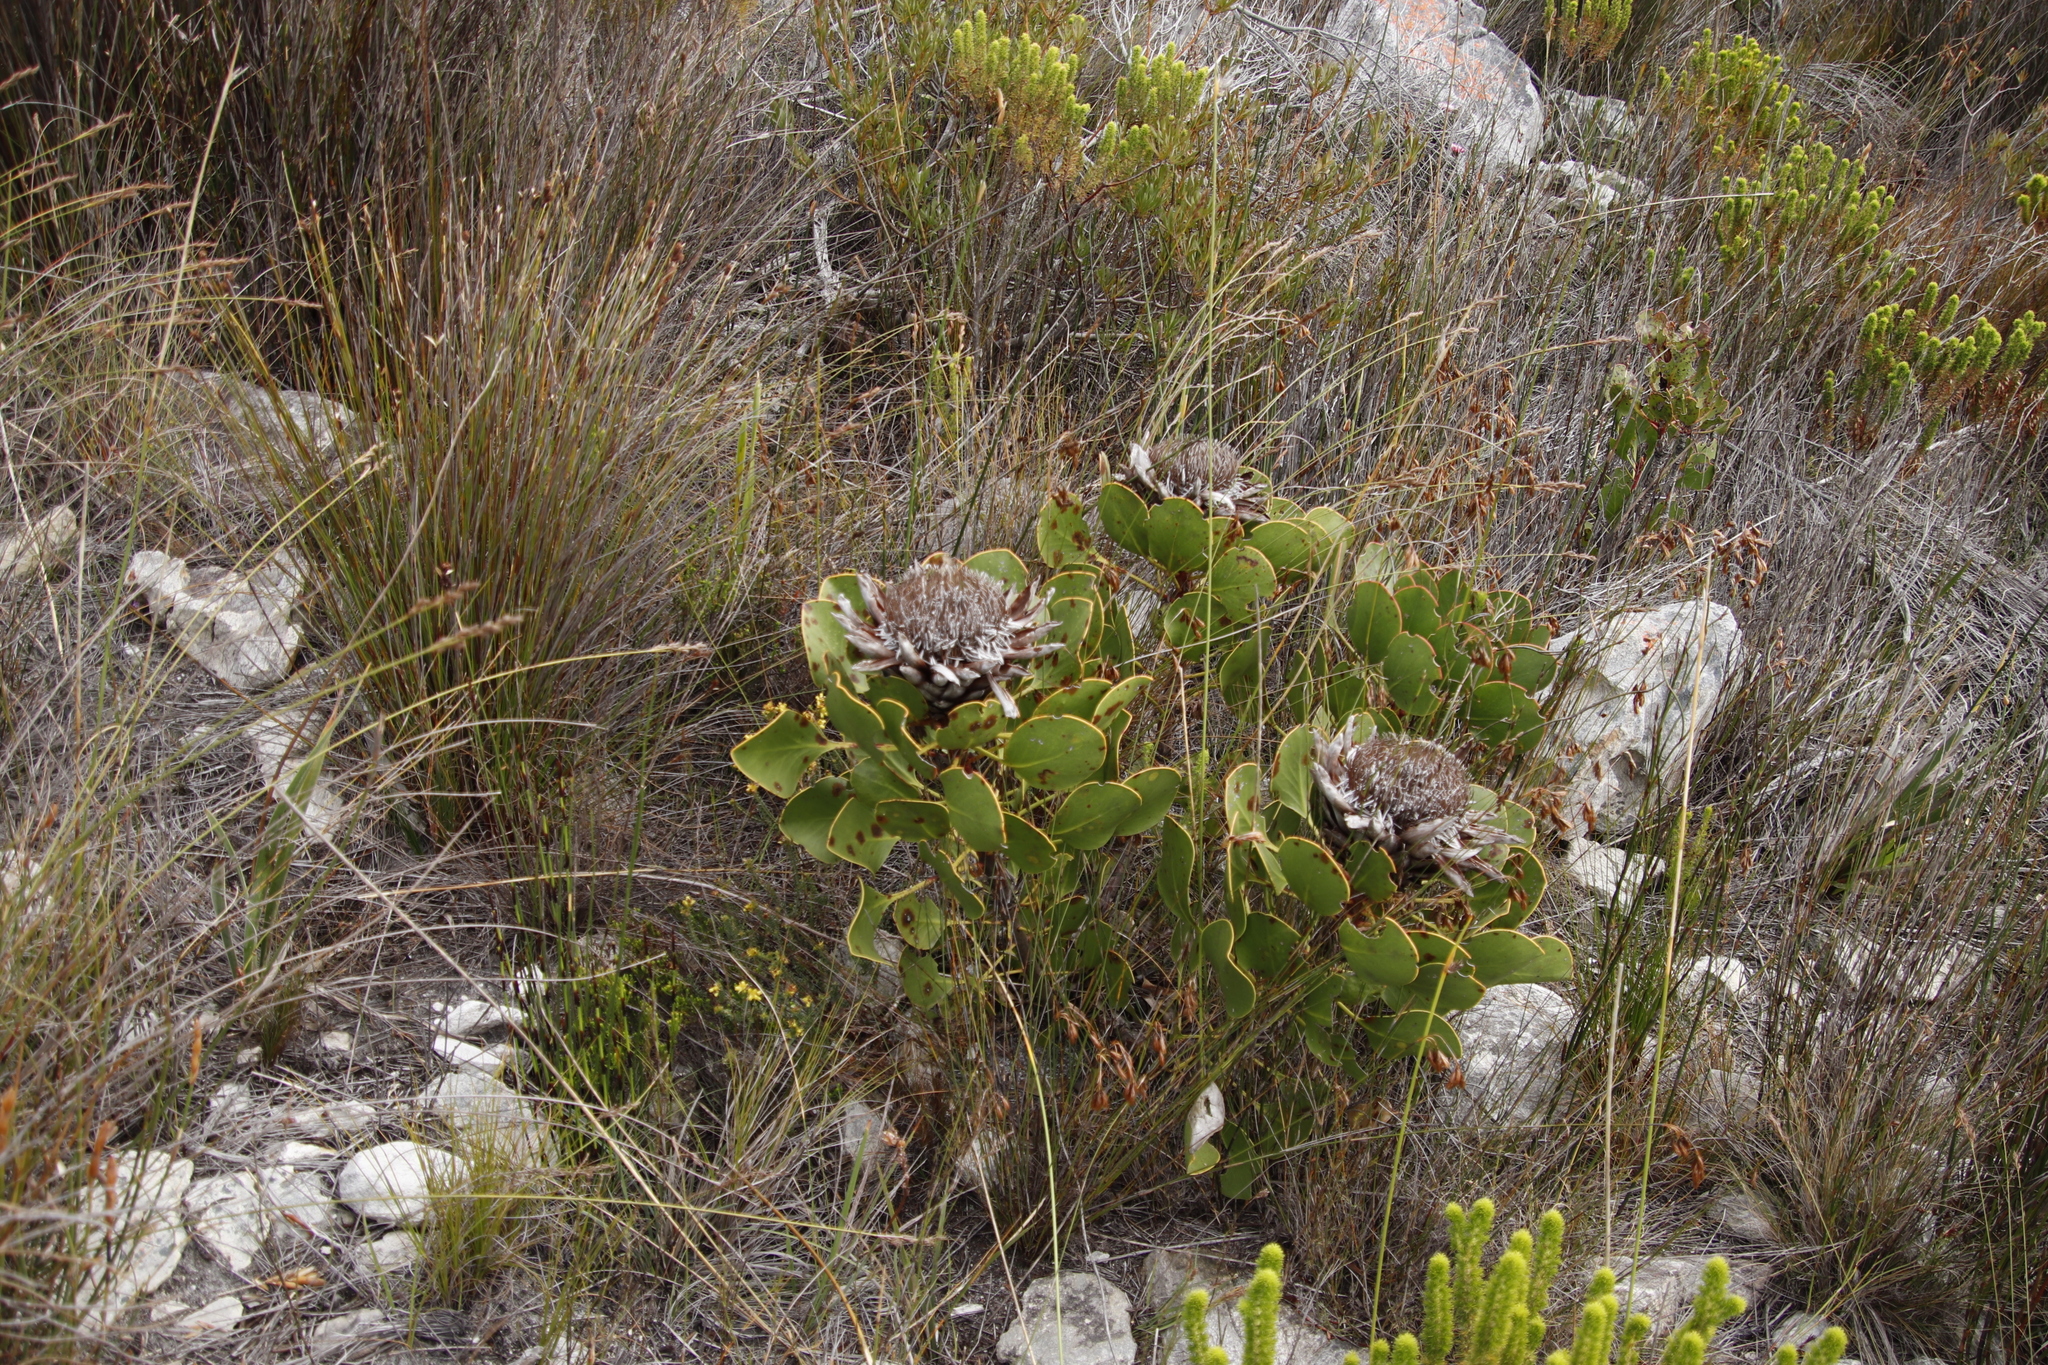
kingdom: Plantae
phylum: Tracheophyta
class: Magnoliopsida
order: Proteales
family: Proteaceae
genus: Protea
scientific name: Protea cynaroides
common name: King protea
